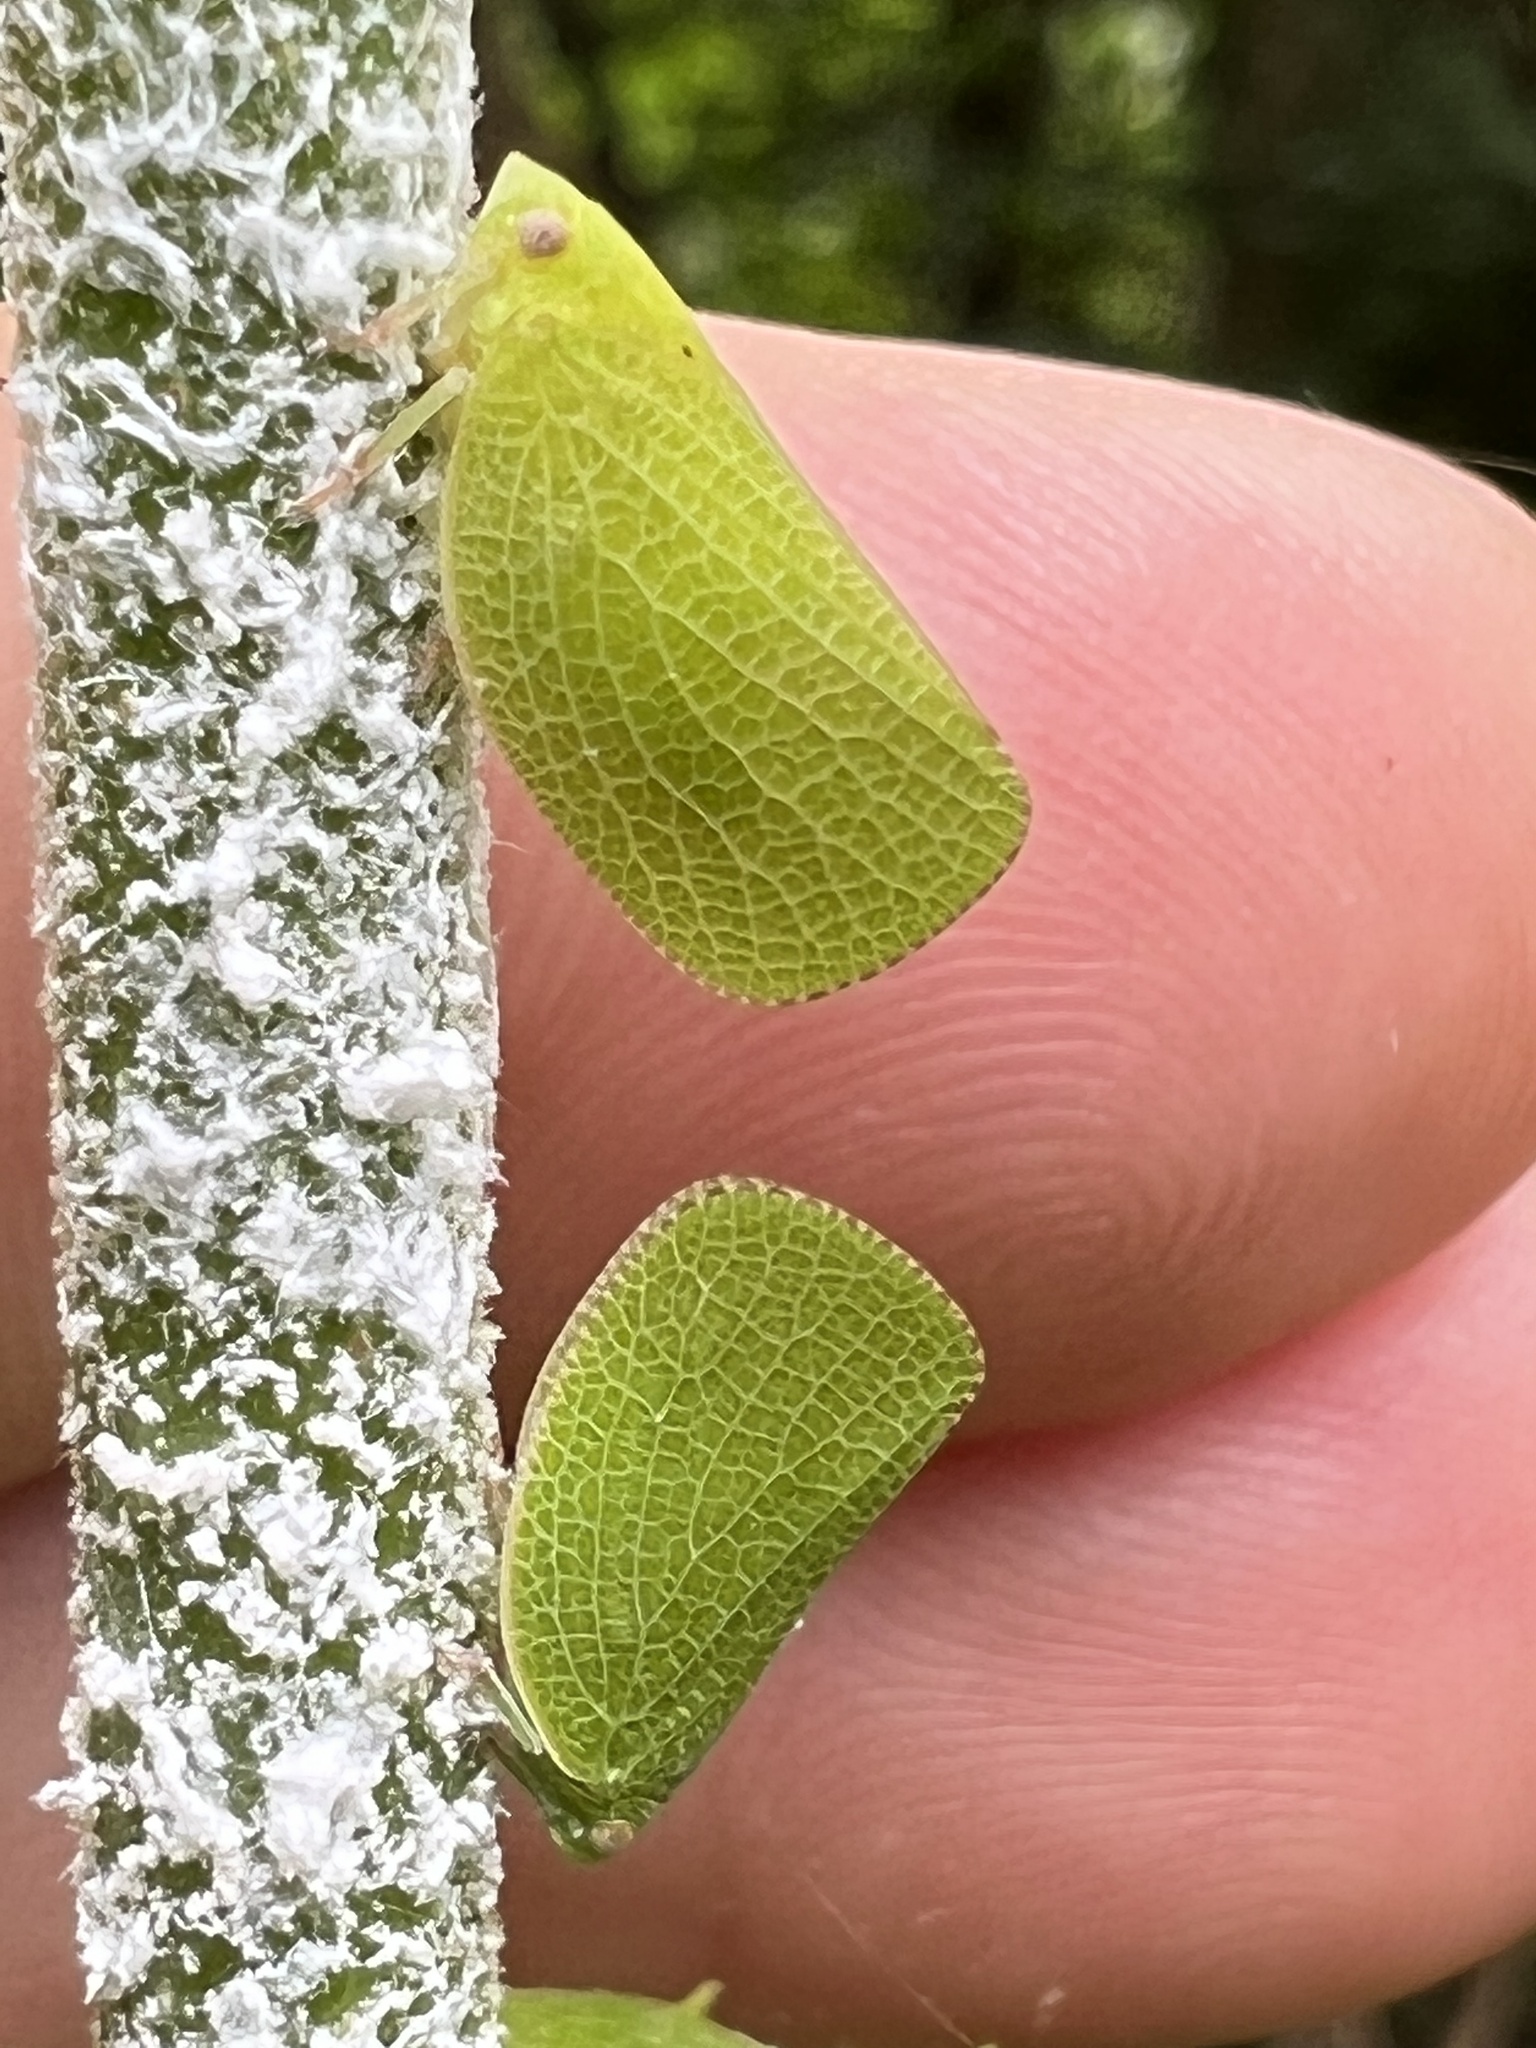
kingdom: Animalia
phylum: Arthropoda
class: Insecta
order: Hemiptera
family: Acanaloniidae
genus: Acanalonia
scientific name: Acanalonia conica
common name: Green cone-headed planthopper
